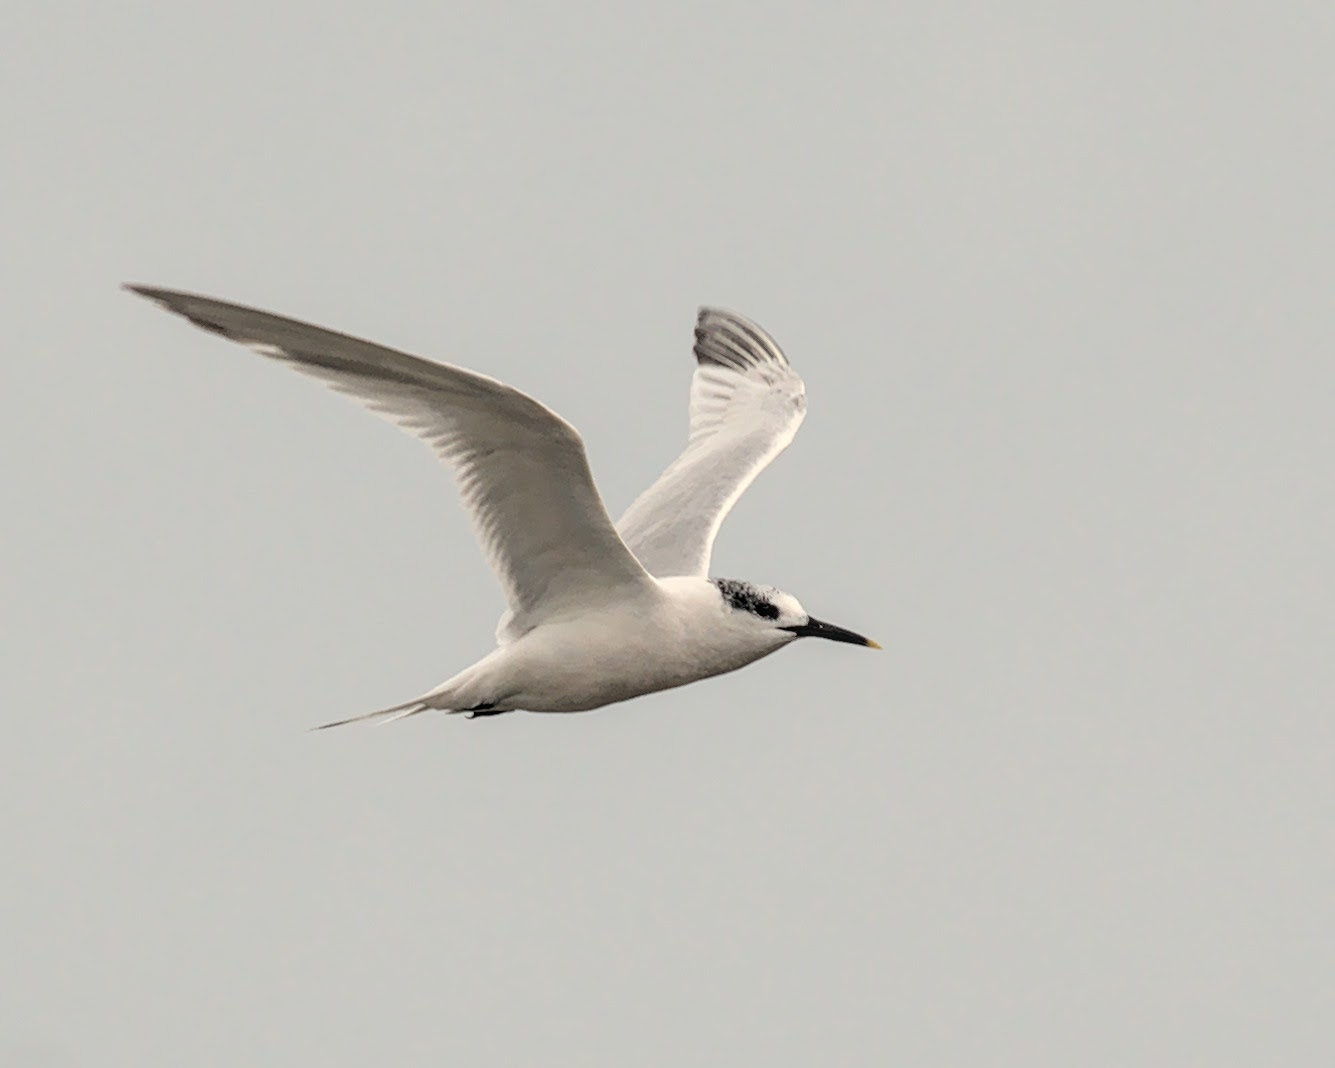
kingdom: Animalia
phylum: Chordata
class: Aves
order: Charadriiformes
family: Laridae
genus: Thalasseus
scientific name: Thalasseus sandvicensis
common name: Sandwich tern
